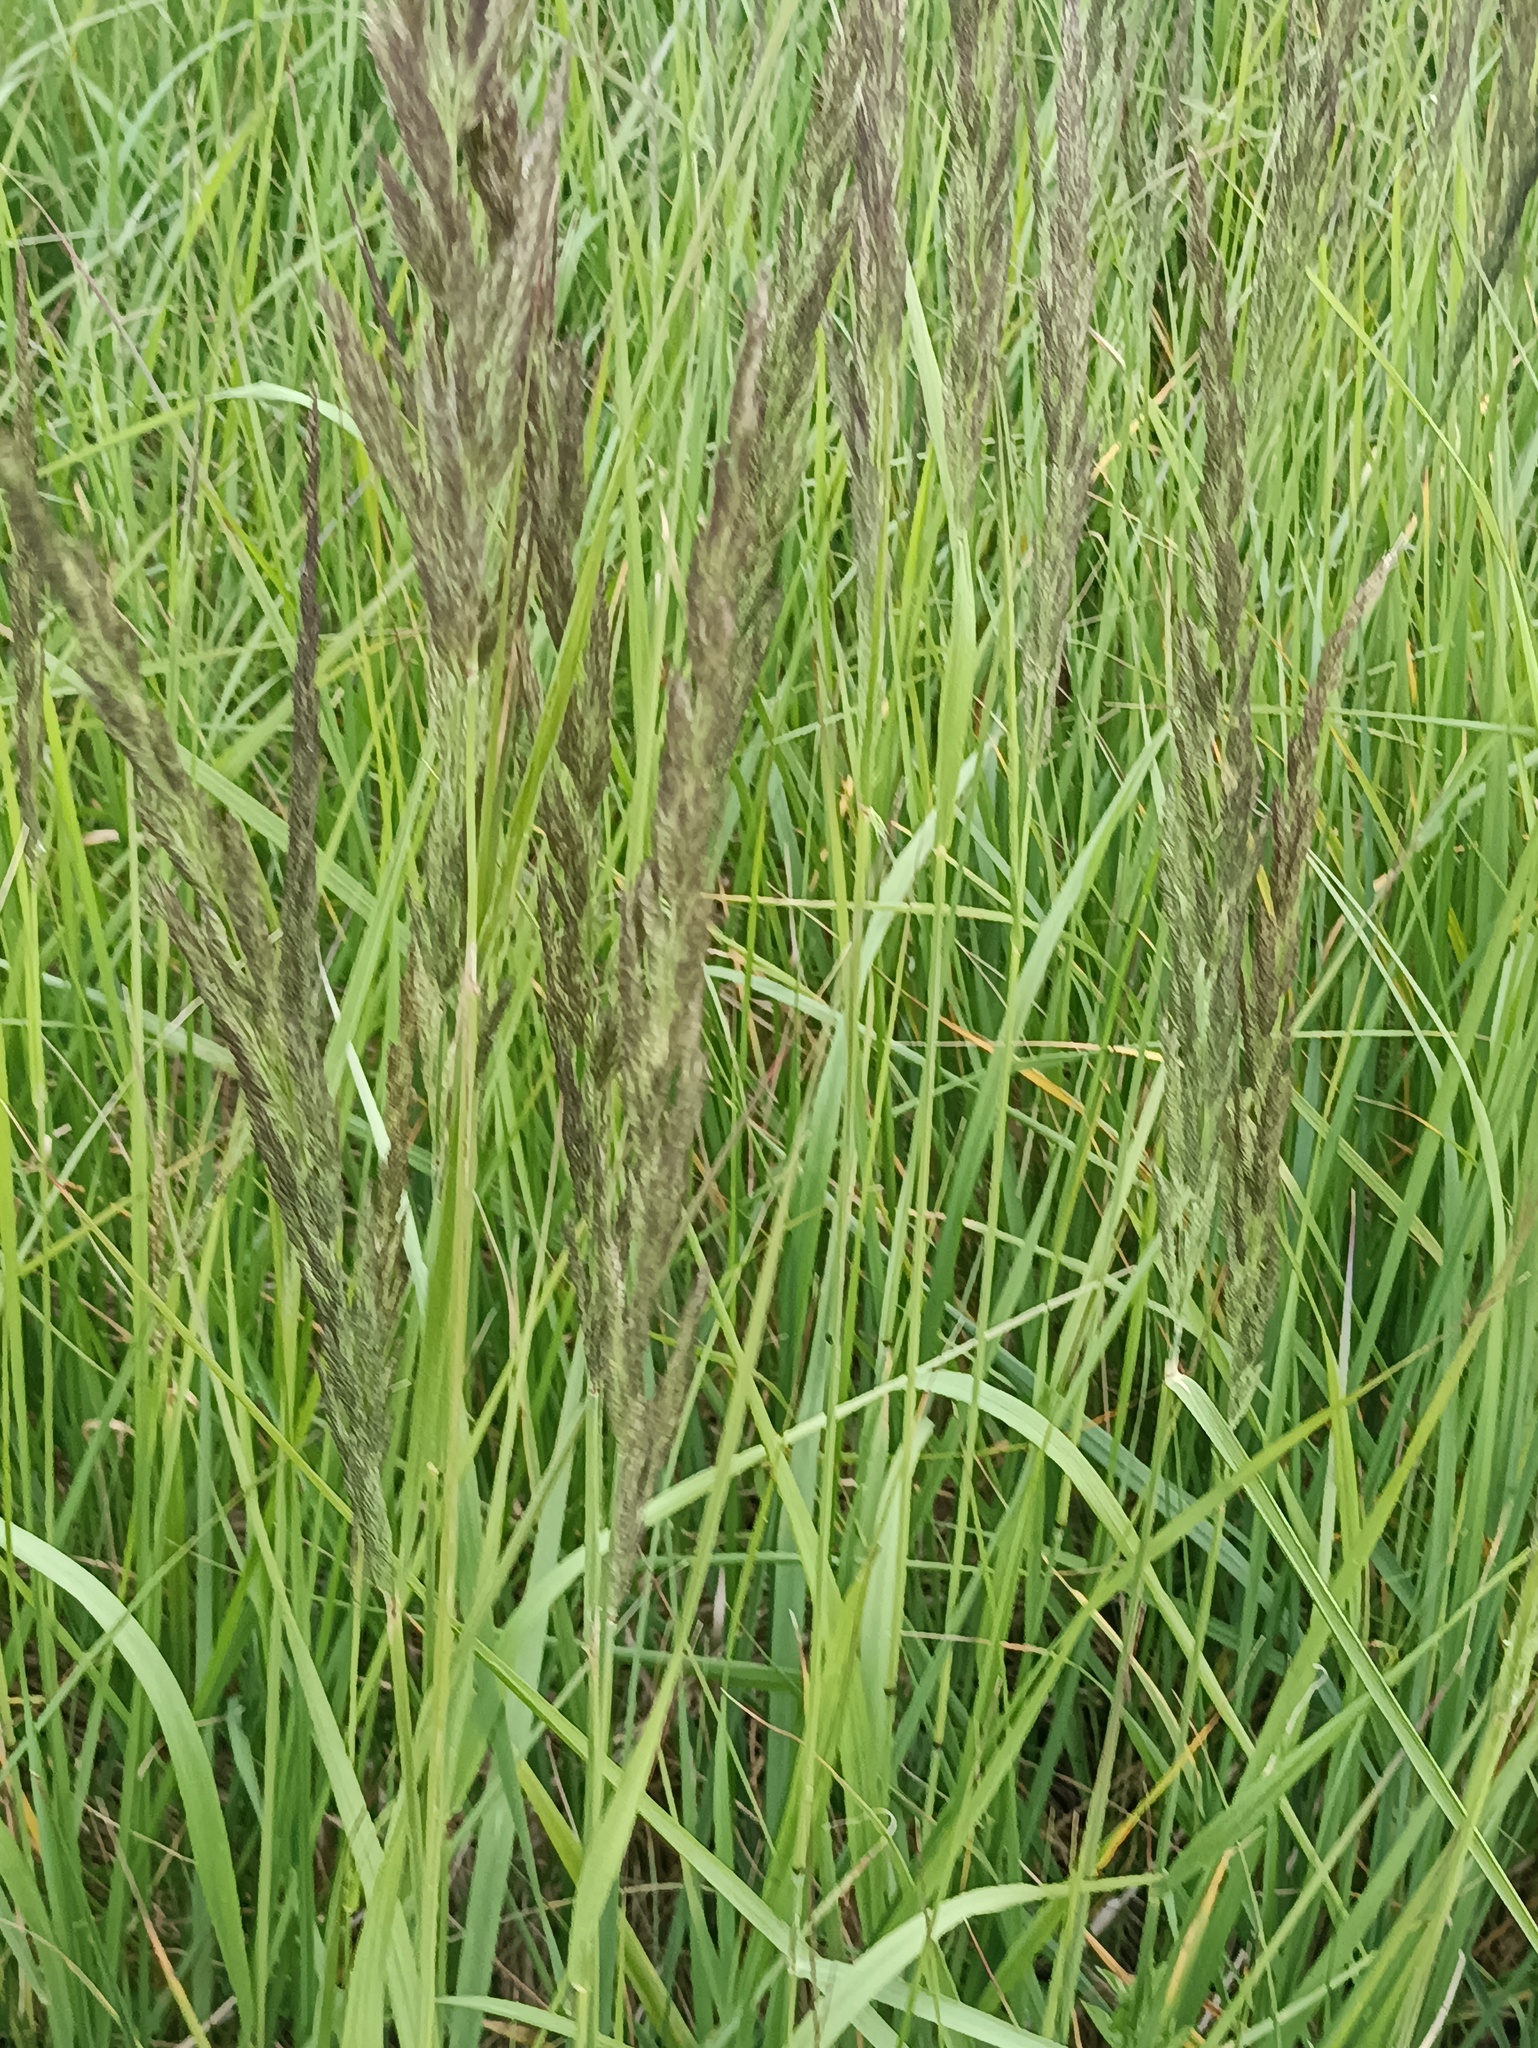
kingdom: Plantae
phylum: Tracheophyta
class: Liliopsida
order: Poales
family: Poaceae
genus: Calamagrostis
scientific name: Calamagrostis epigejos
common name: Wood small-reed
